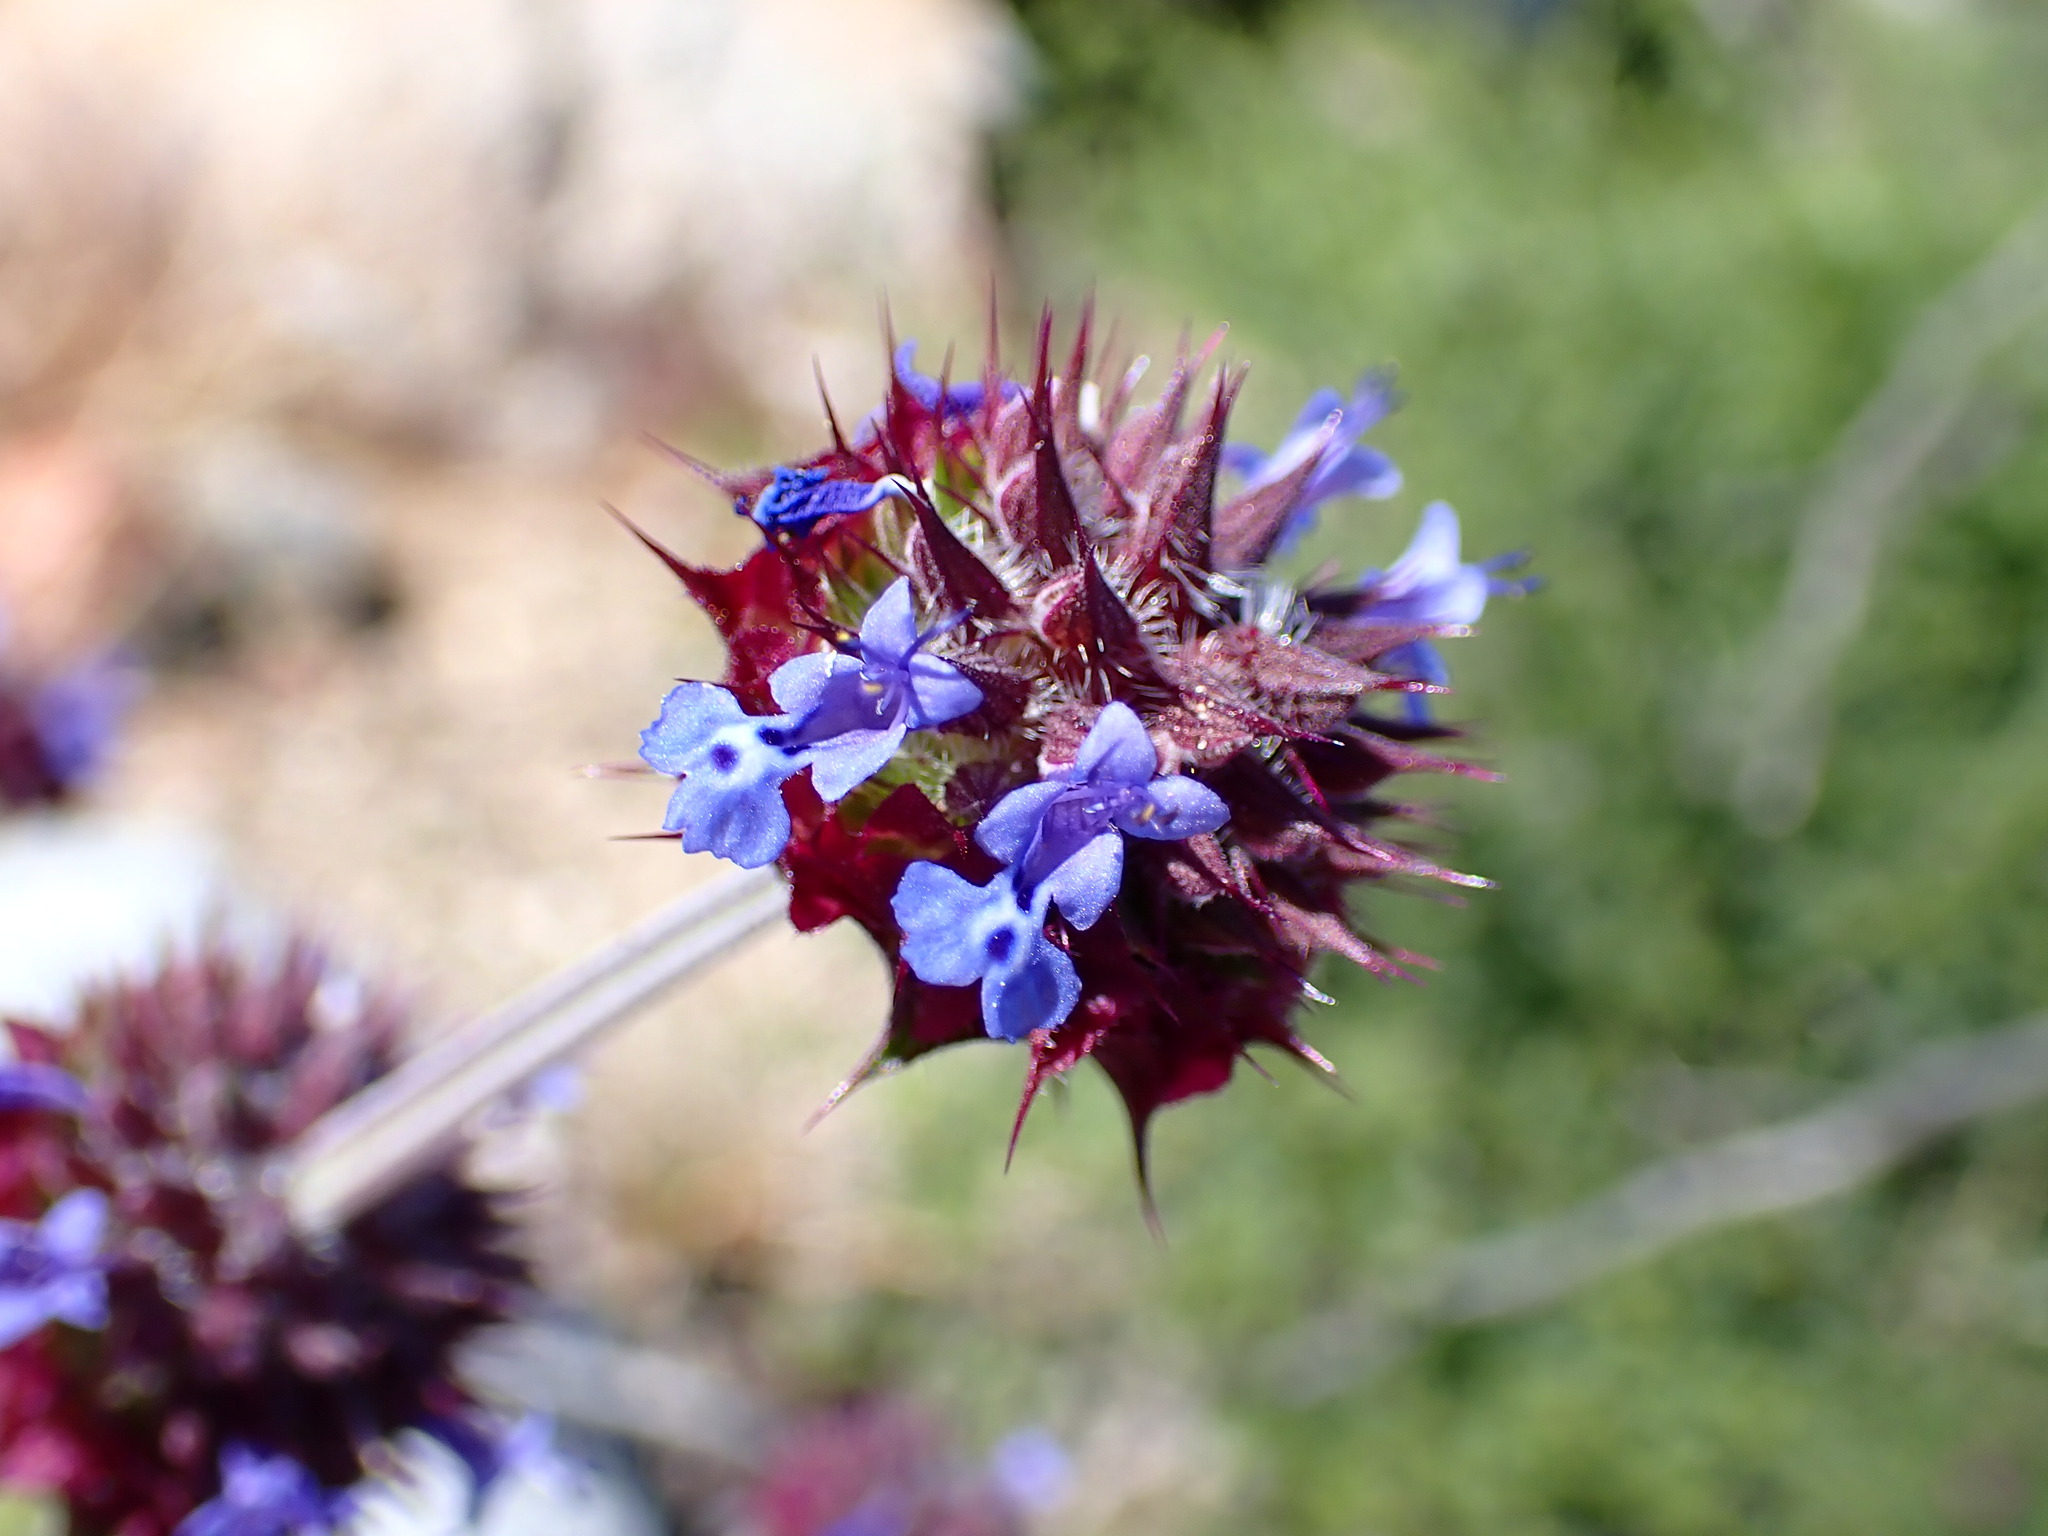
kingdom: Plantae
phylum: Tracheophyta
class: Magnoliopsida
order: Lamiales
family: Lamiaceae
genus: Salvia
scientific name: Salvia columbariae
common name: Chia
